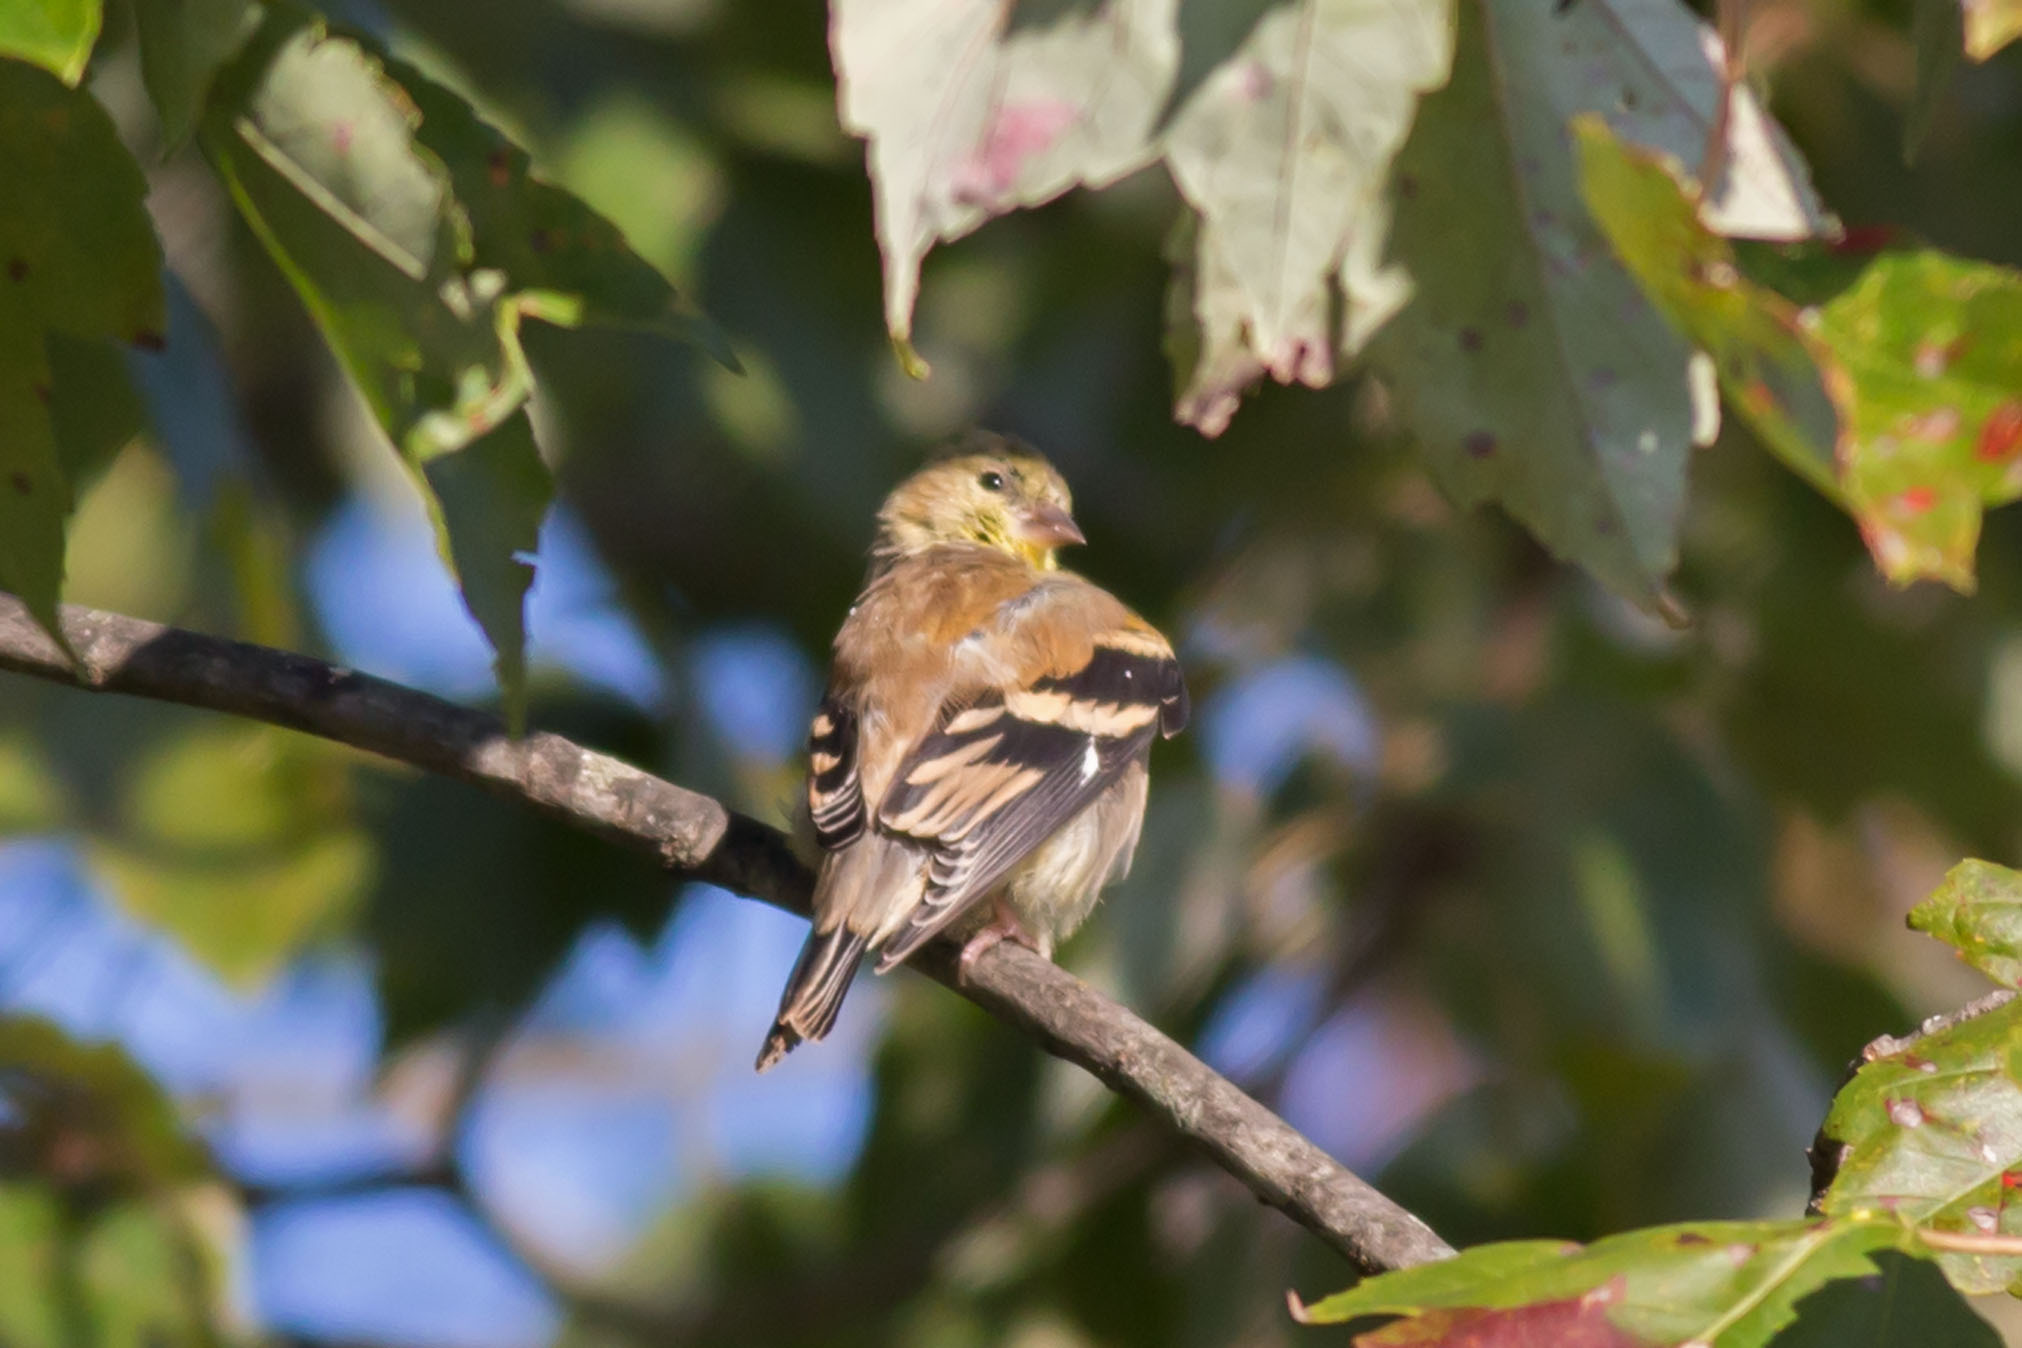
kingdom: Animalia
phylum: Chordata
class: Aves
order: Passeriformes
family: Fringillidae
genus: Spinus
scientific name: Spinus tristis
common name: American goldfinch
